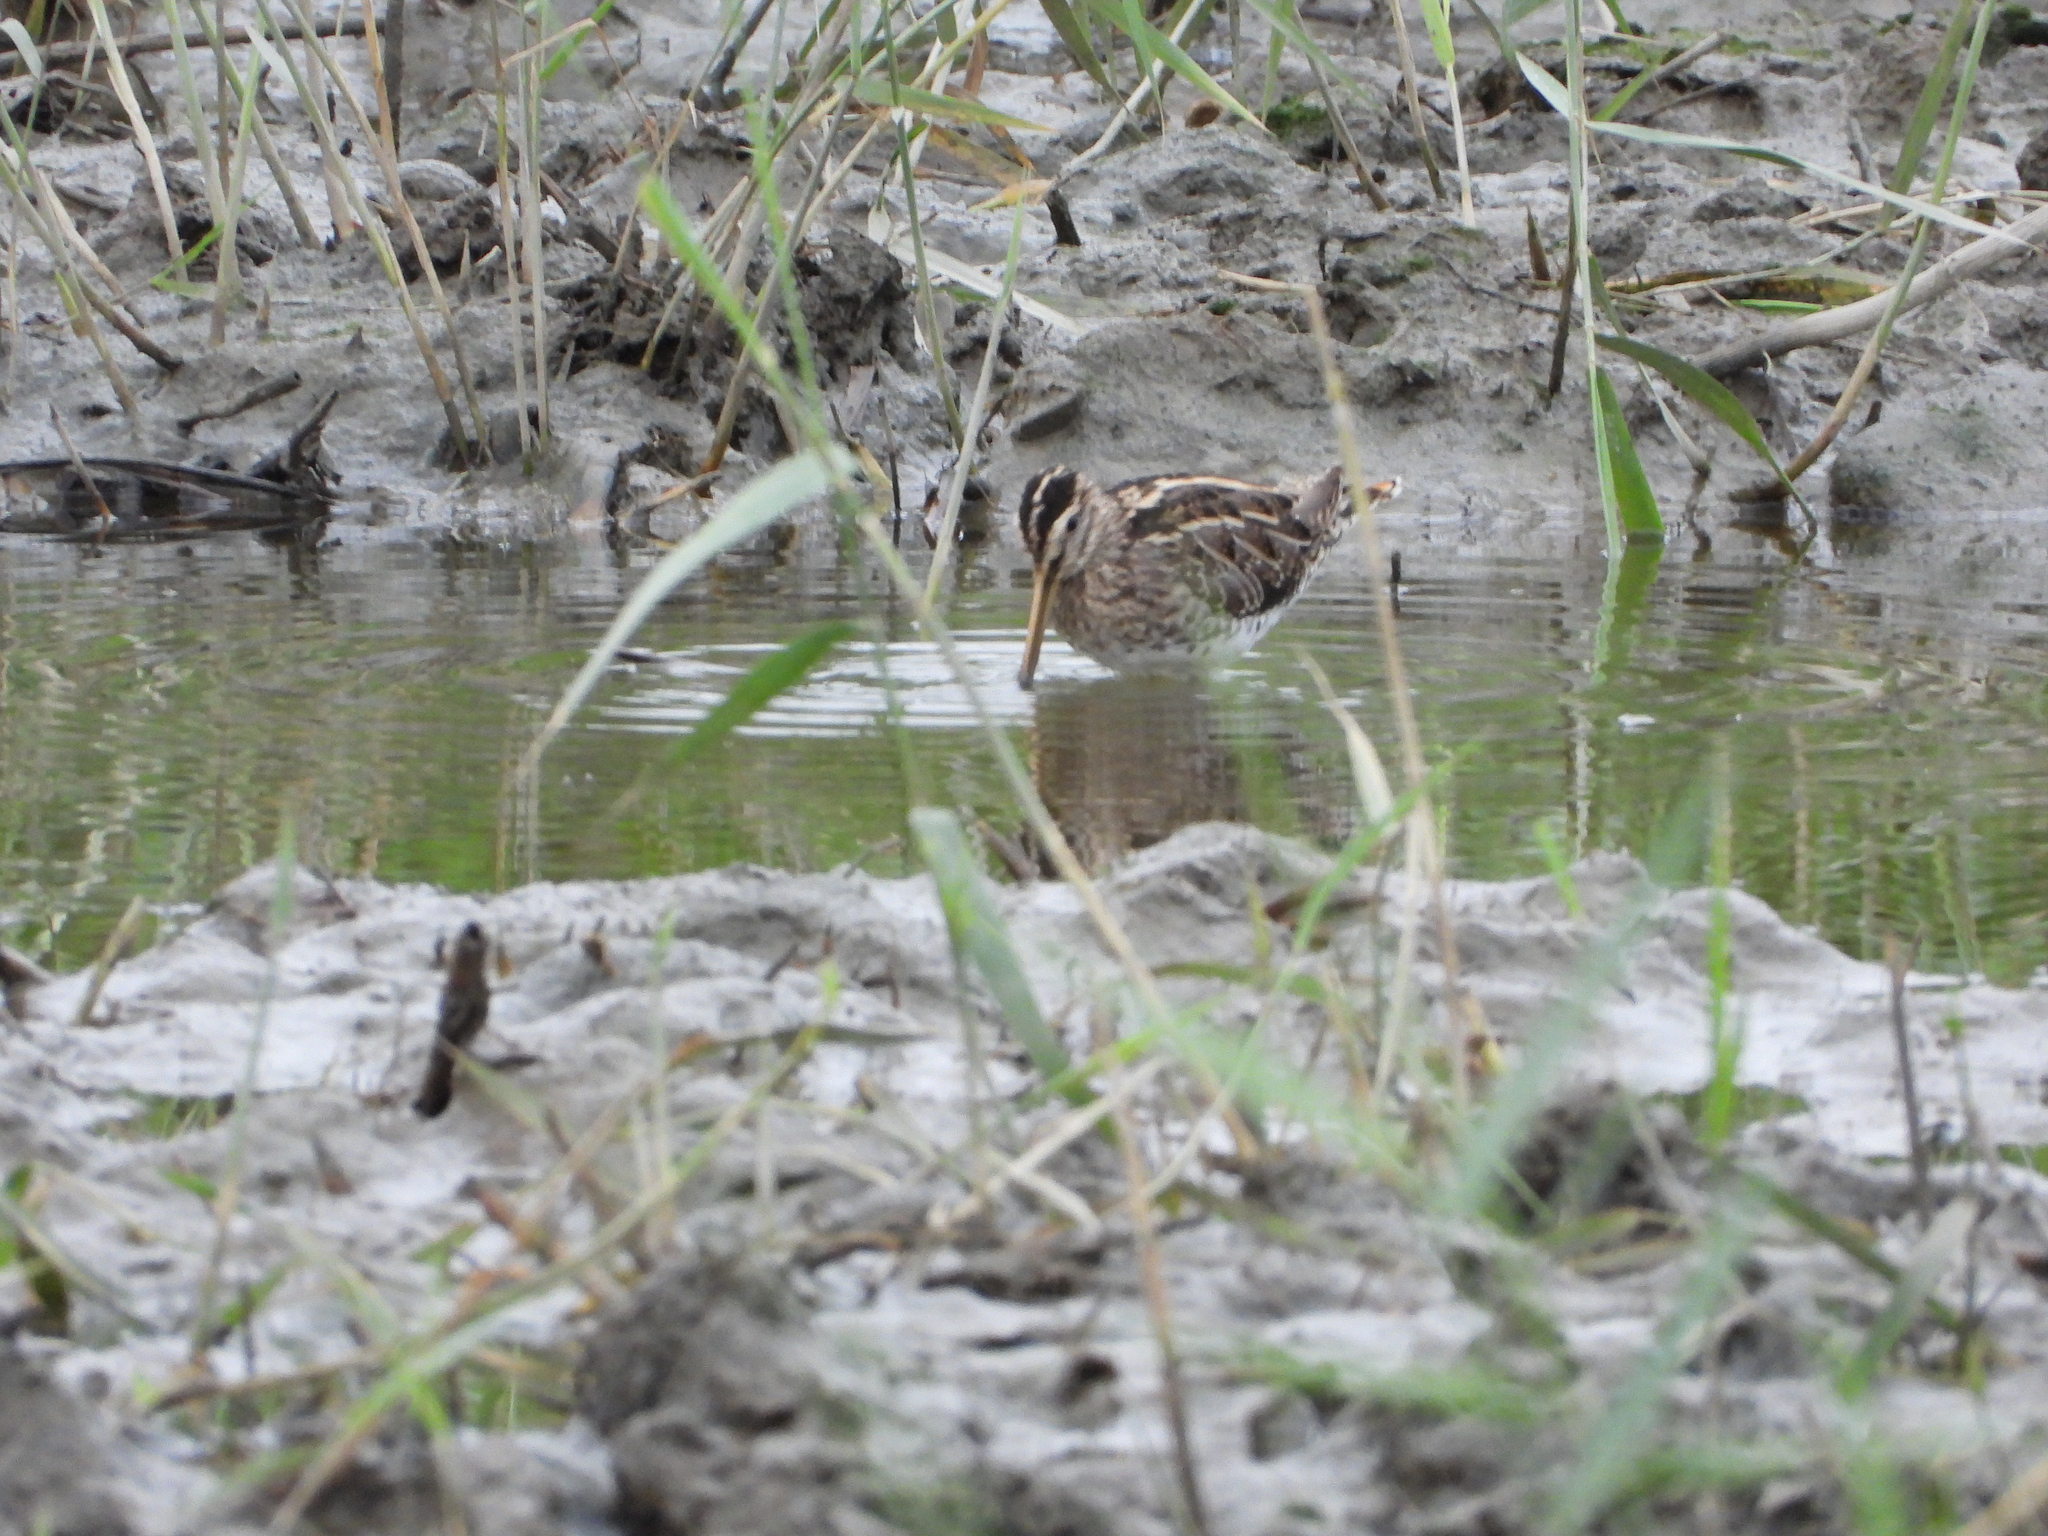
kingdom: Animalia
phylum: Chordata
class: Aves
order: Charadriiformes
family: Scolopacidae
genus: Gallinago
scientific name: Gallinago gallinago
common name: Common snipe
